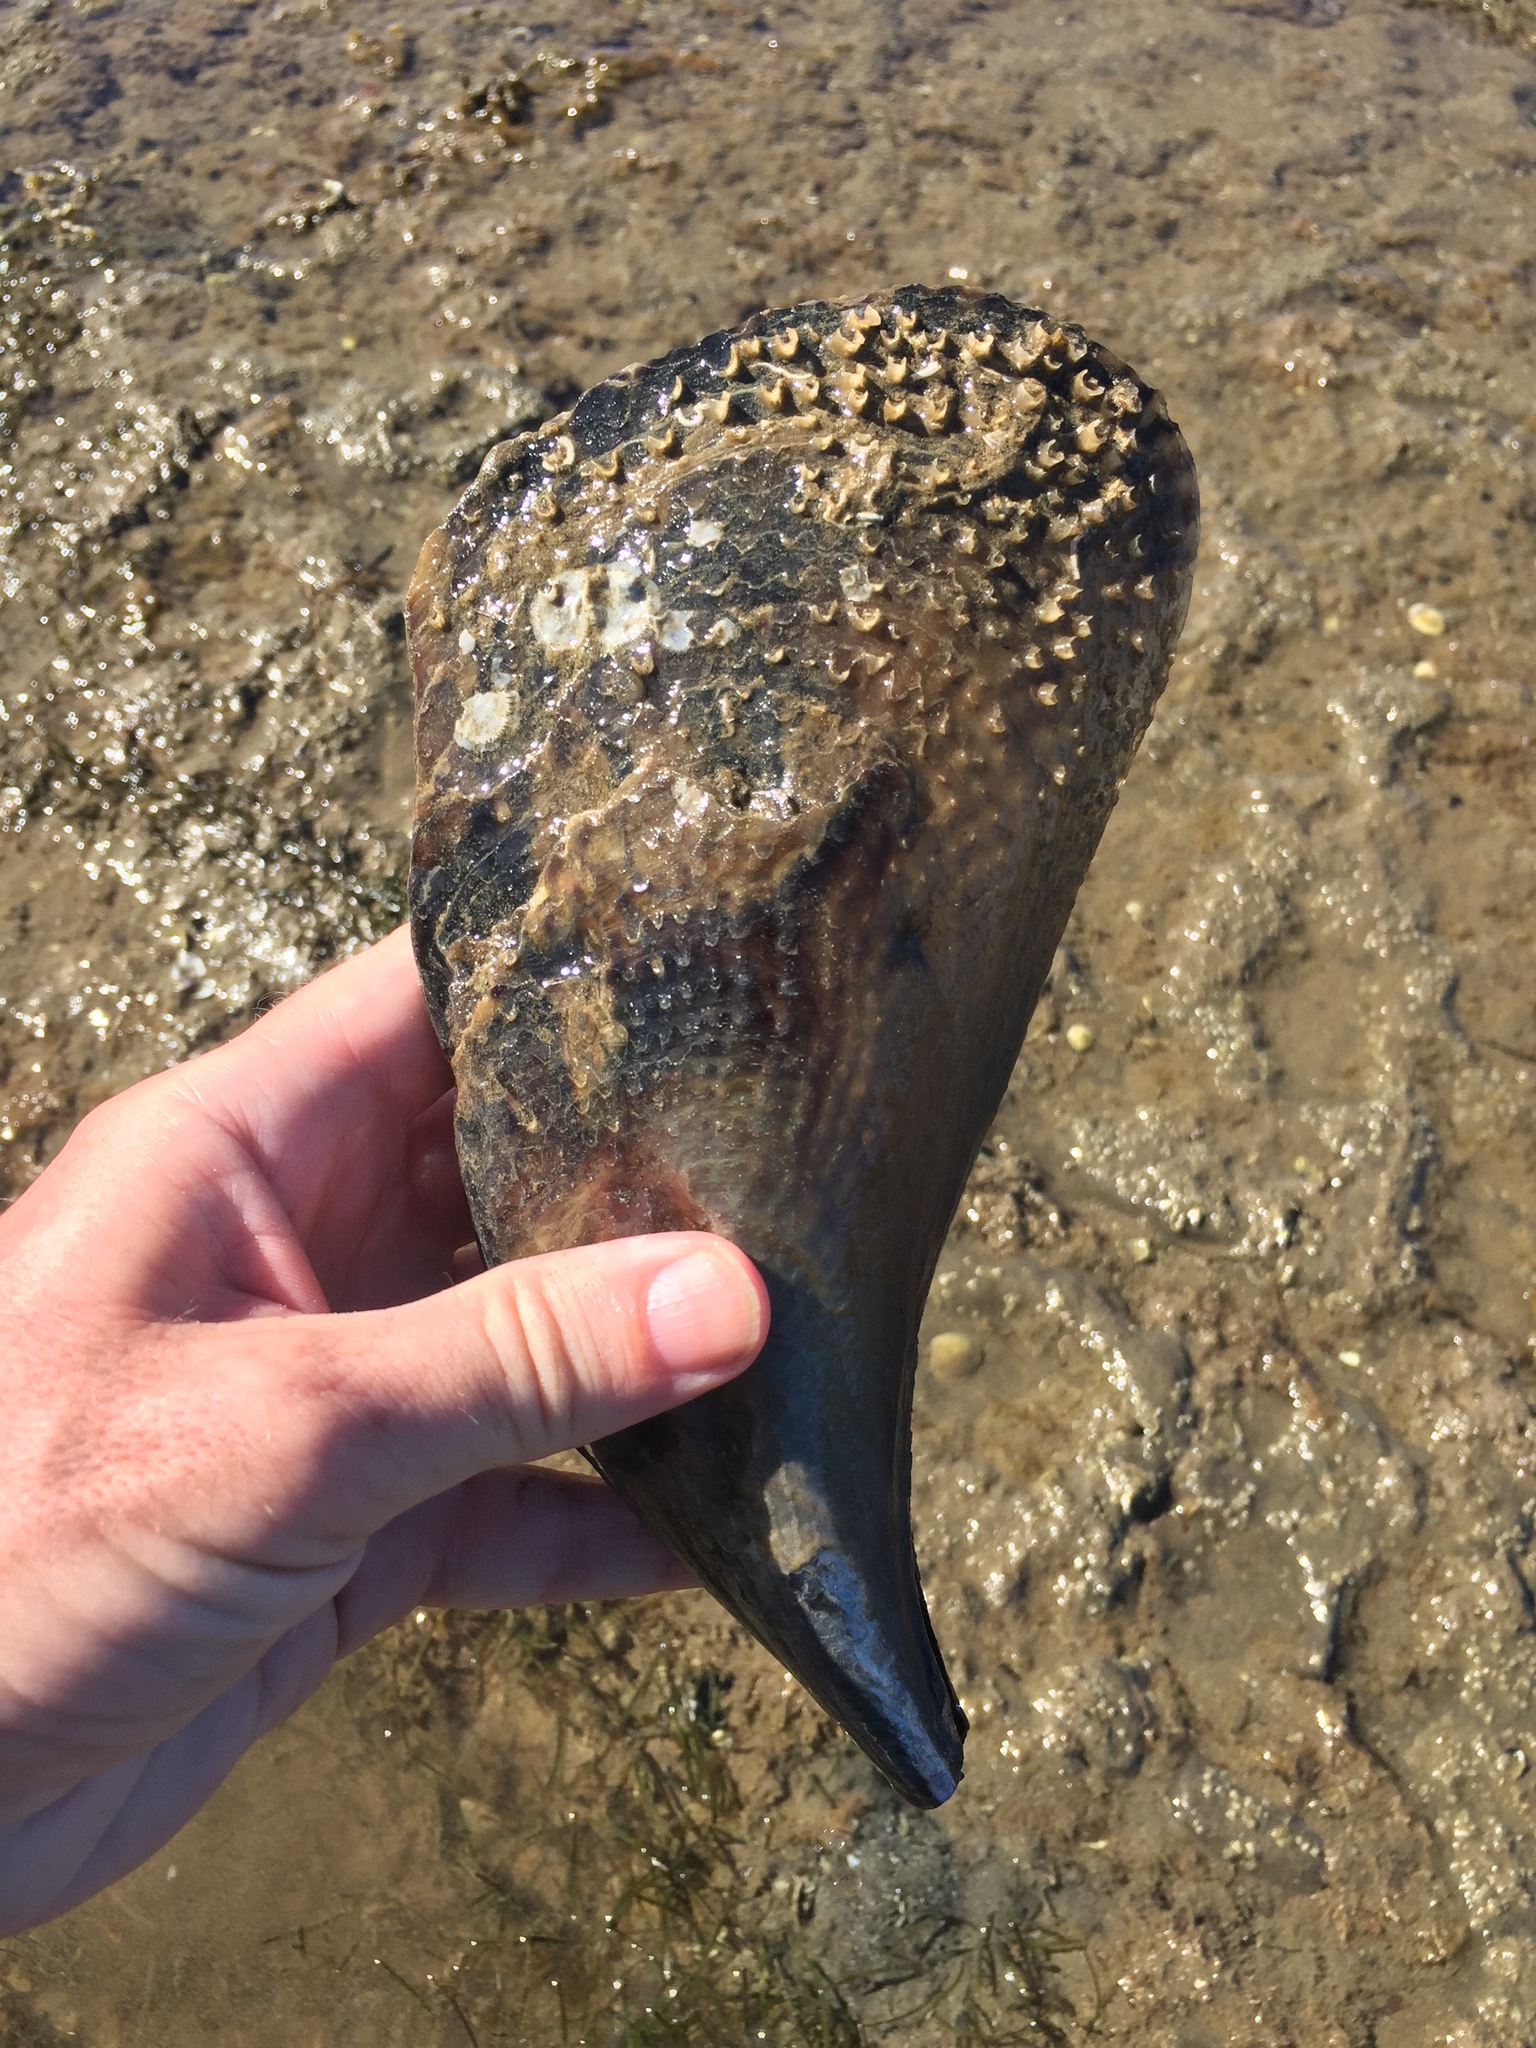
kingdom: Animalia
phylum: Mollusca
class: Bivalvia
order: Ostreida
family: Pinnidae
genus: Atrina
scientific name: Atrina zelandica
